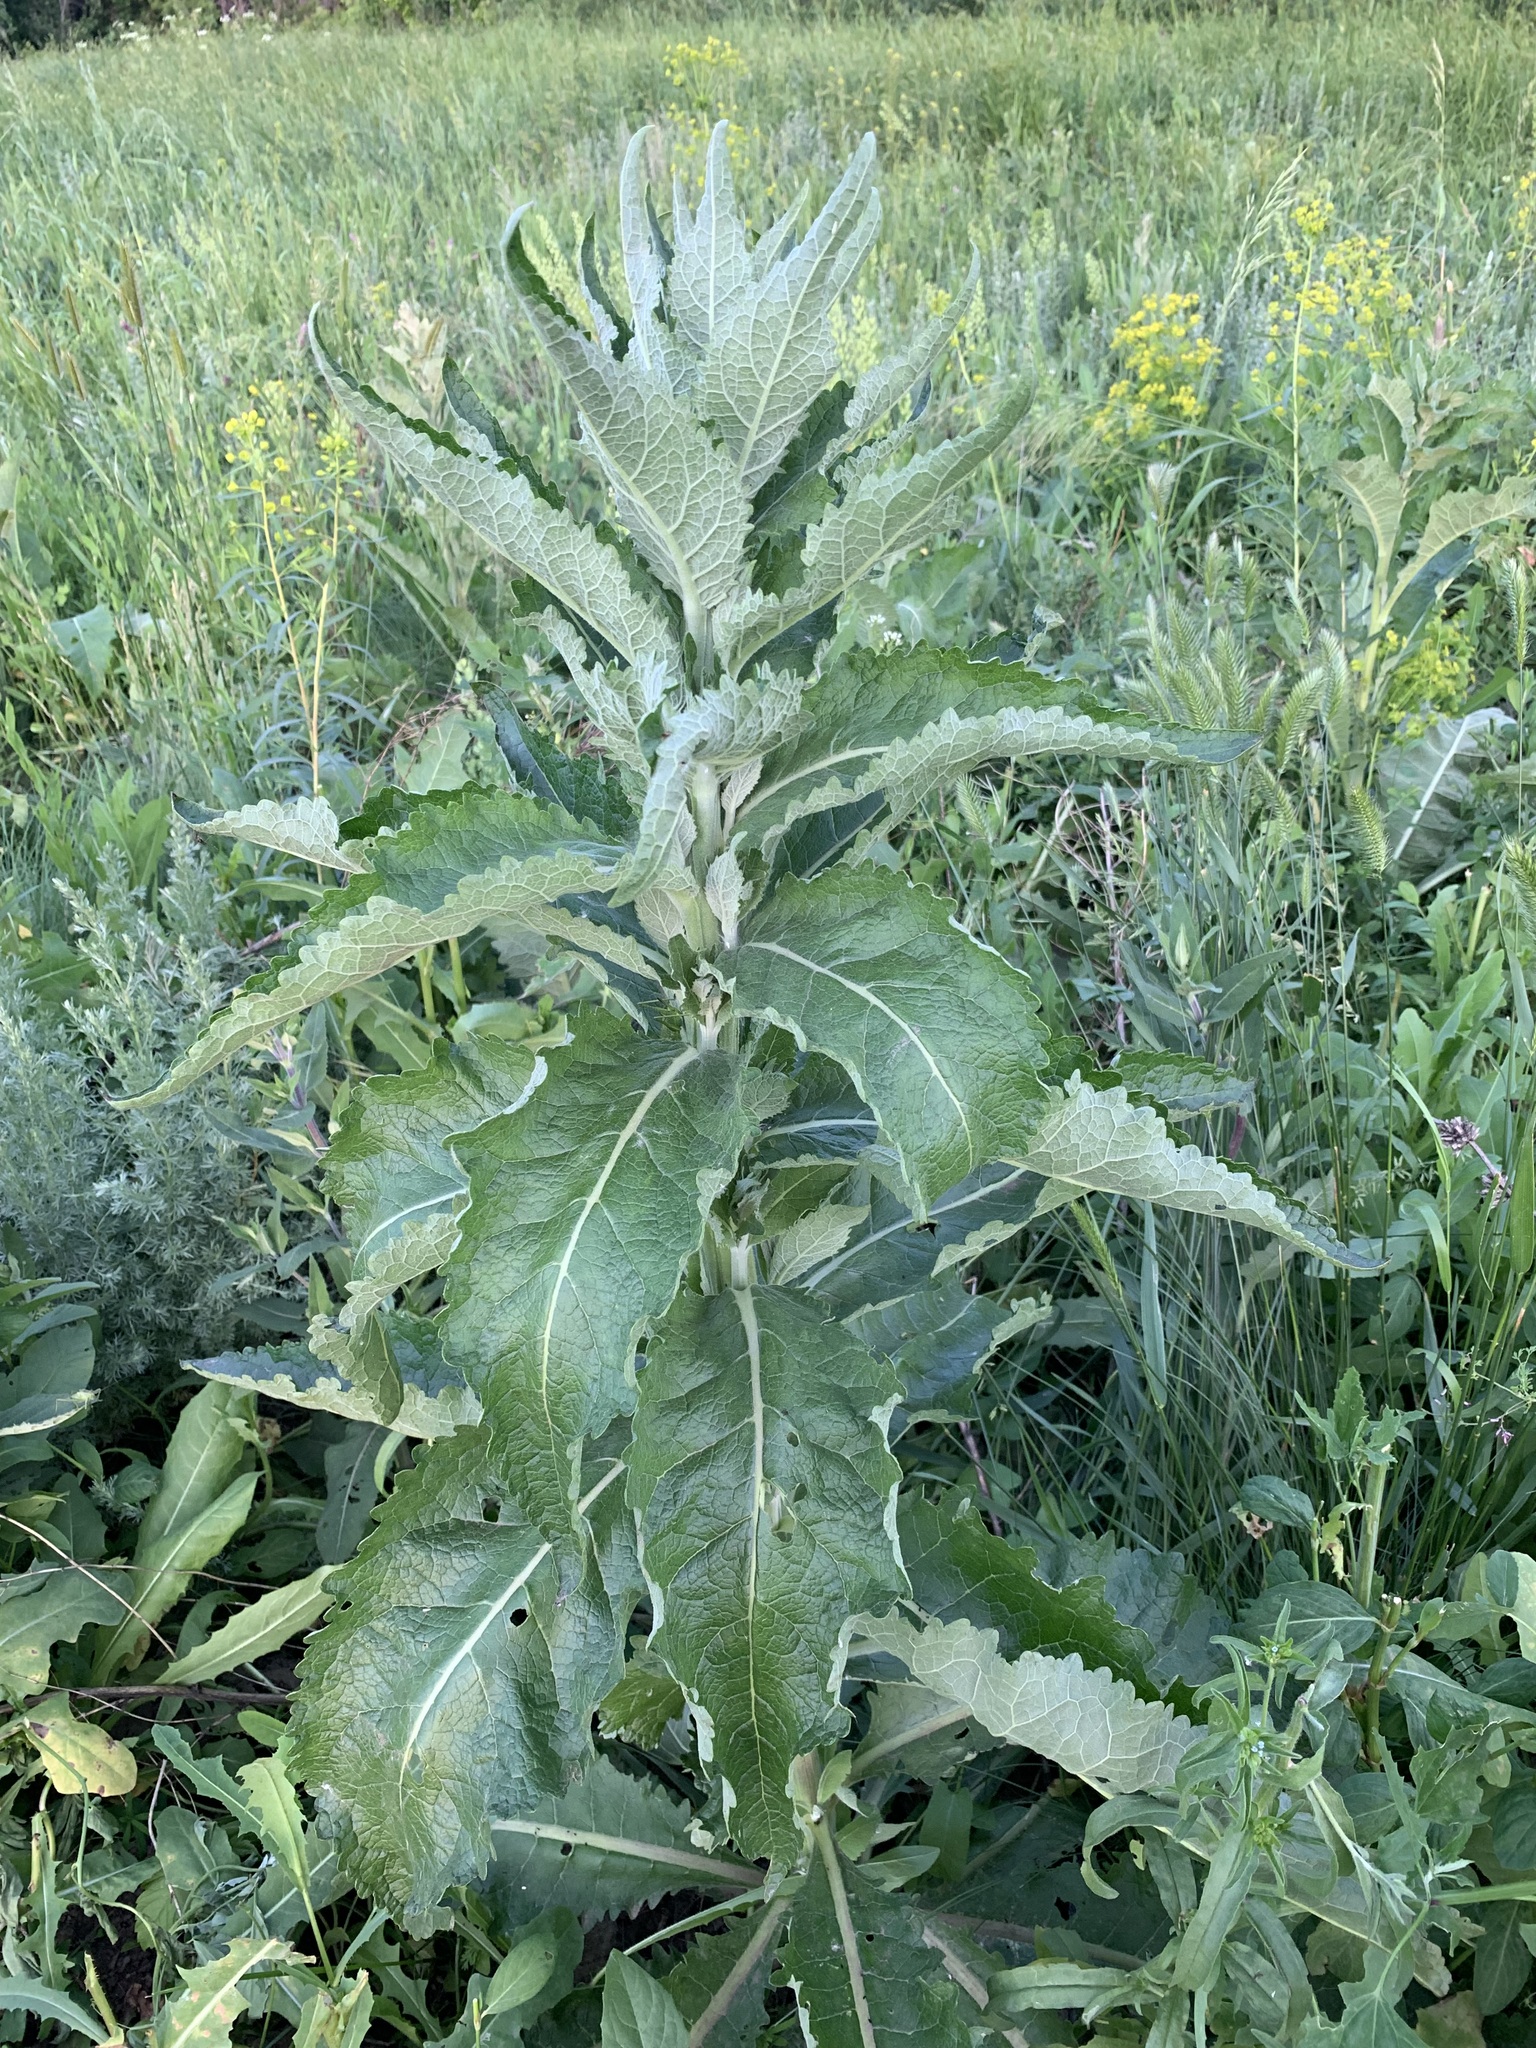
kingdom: Plantae
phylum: Tracheophyta
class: Magnoliopsida
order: Lamiales
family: Scrophulariaceae
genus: Verbascum
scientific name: Verbascum lychnitis
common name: White mullein
